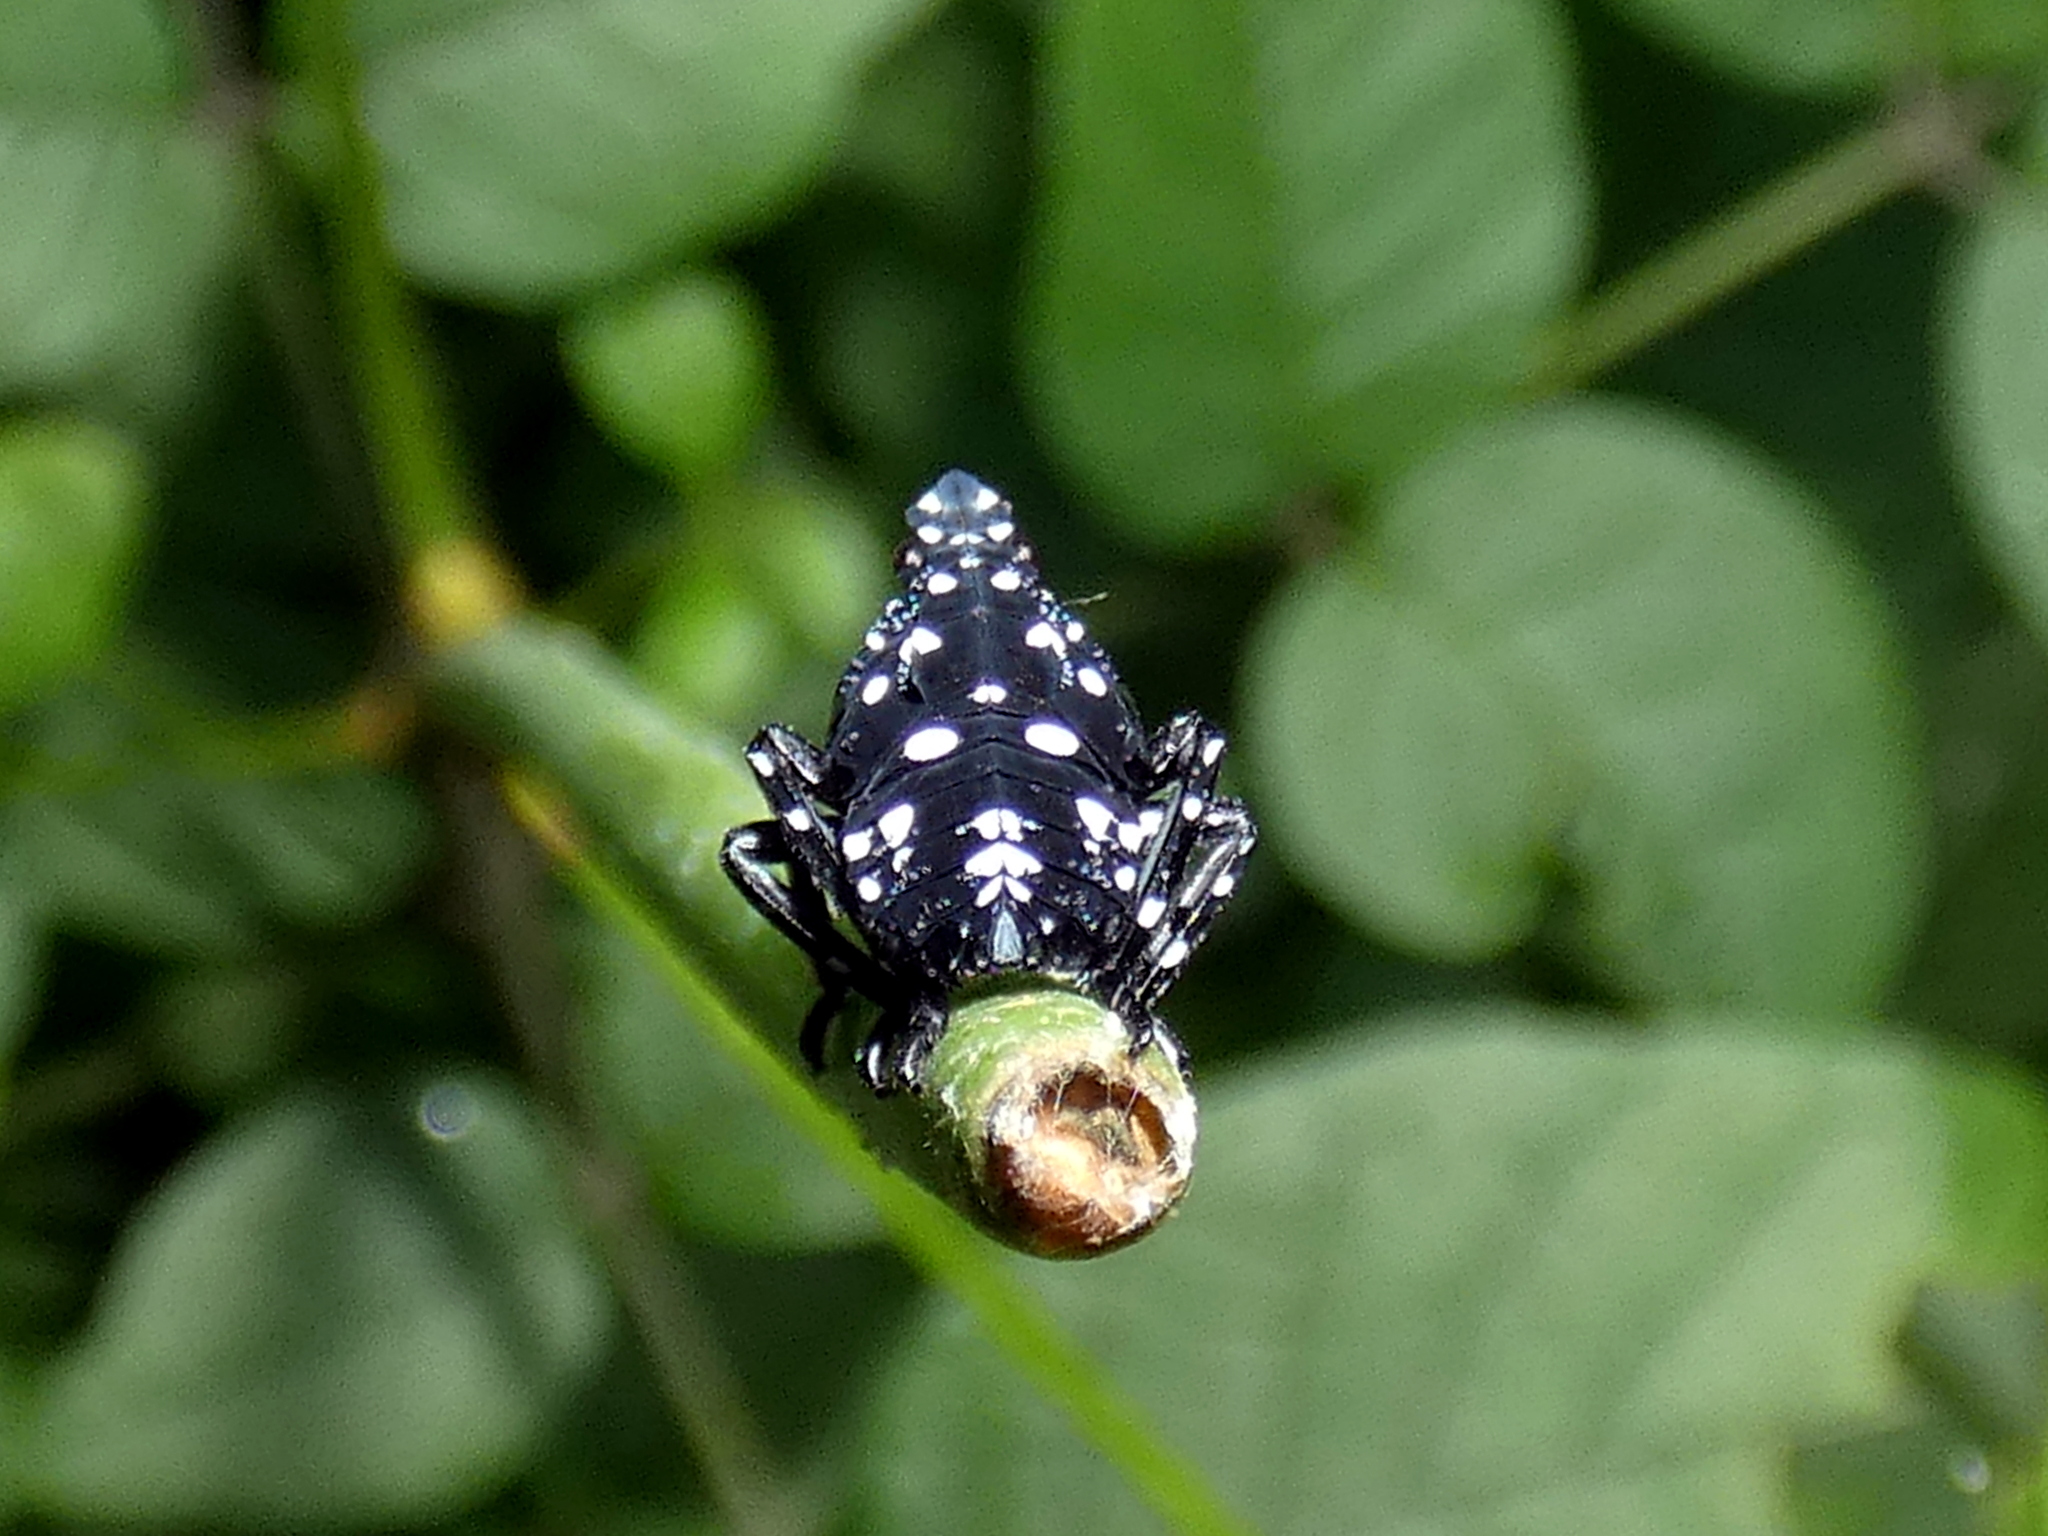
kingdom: Animalia
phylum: Arthropoda
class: Insecta
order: Hemiptera
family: Fulgoridae
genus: Lycorma
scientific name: Lycorma delicatula
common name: Spotted lanternfly
